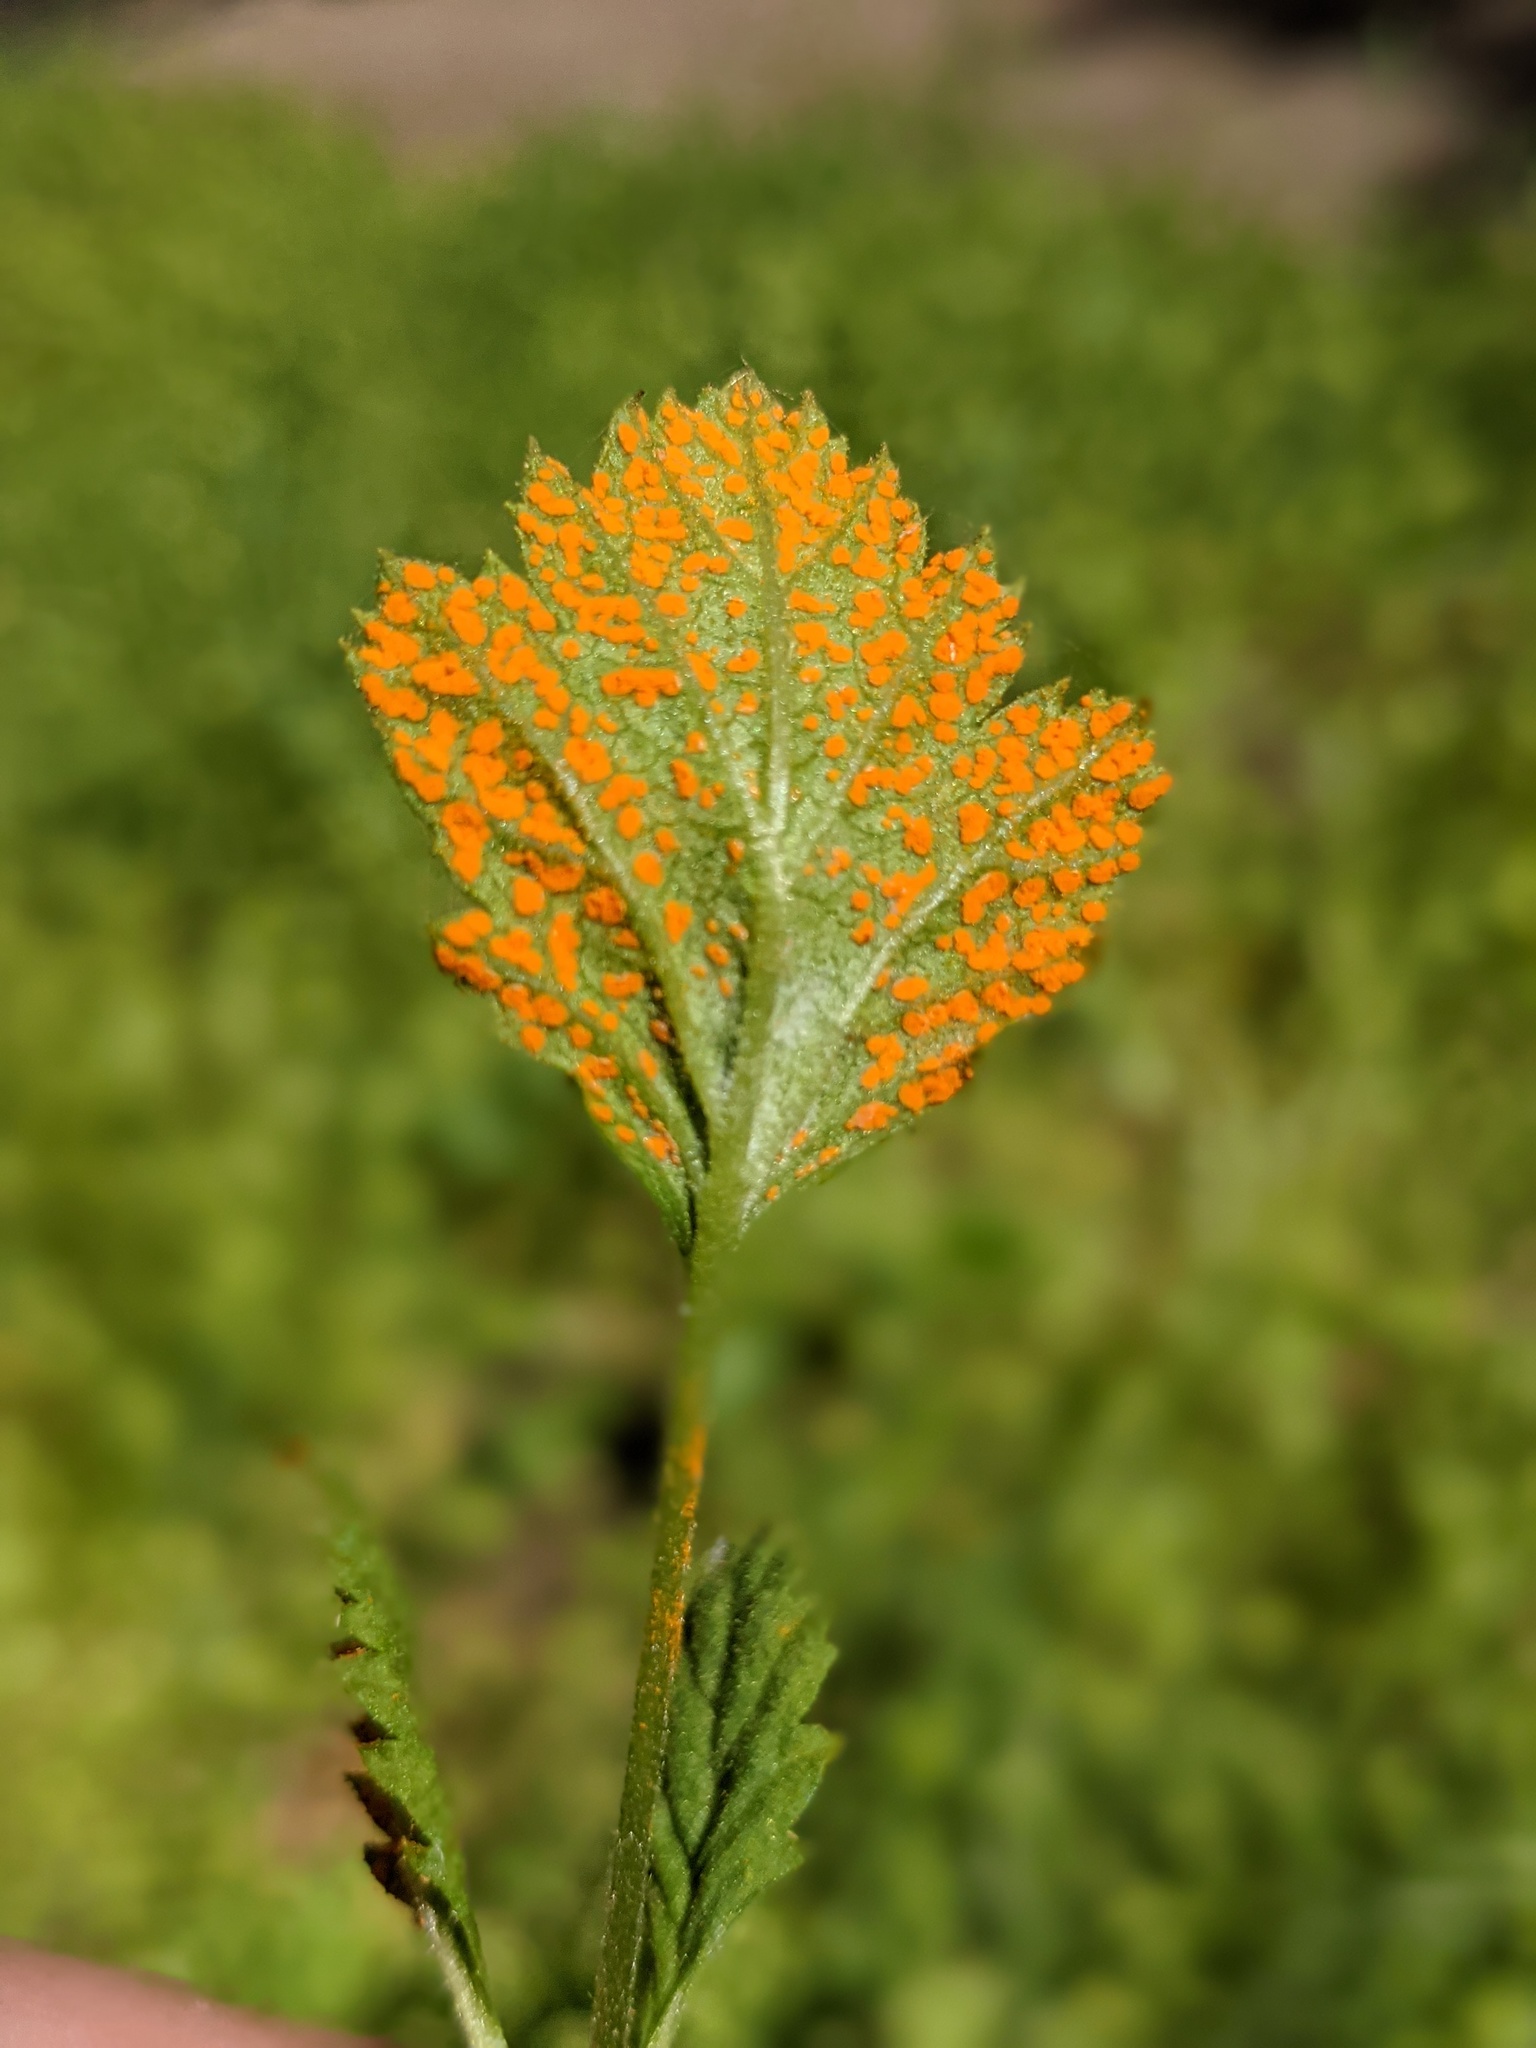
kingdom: Fungi
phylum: Basidiomycota
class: Pucciniomycetes
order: Pucciniales
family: Phragmidiaceae
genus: Arthuriomyces
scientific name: Arthuriomyces peckianus
